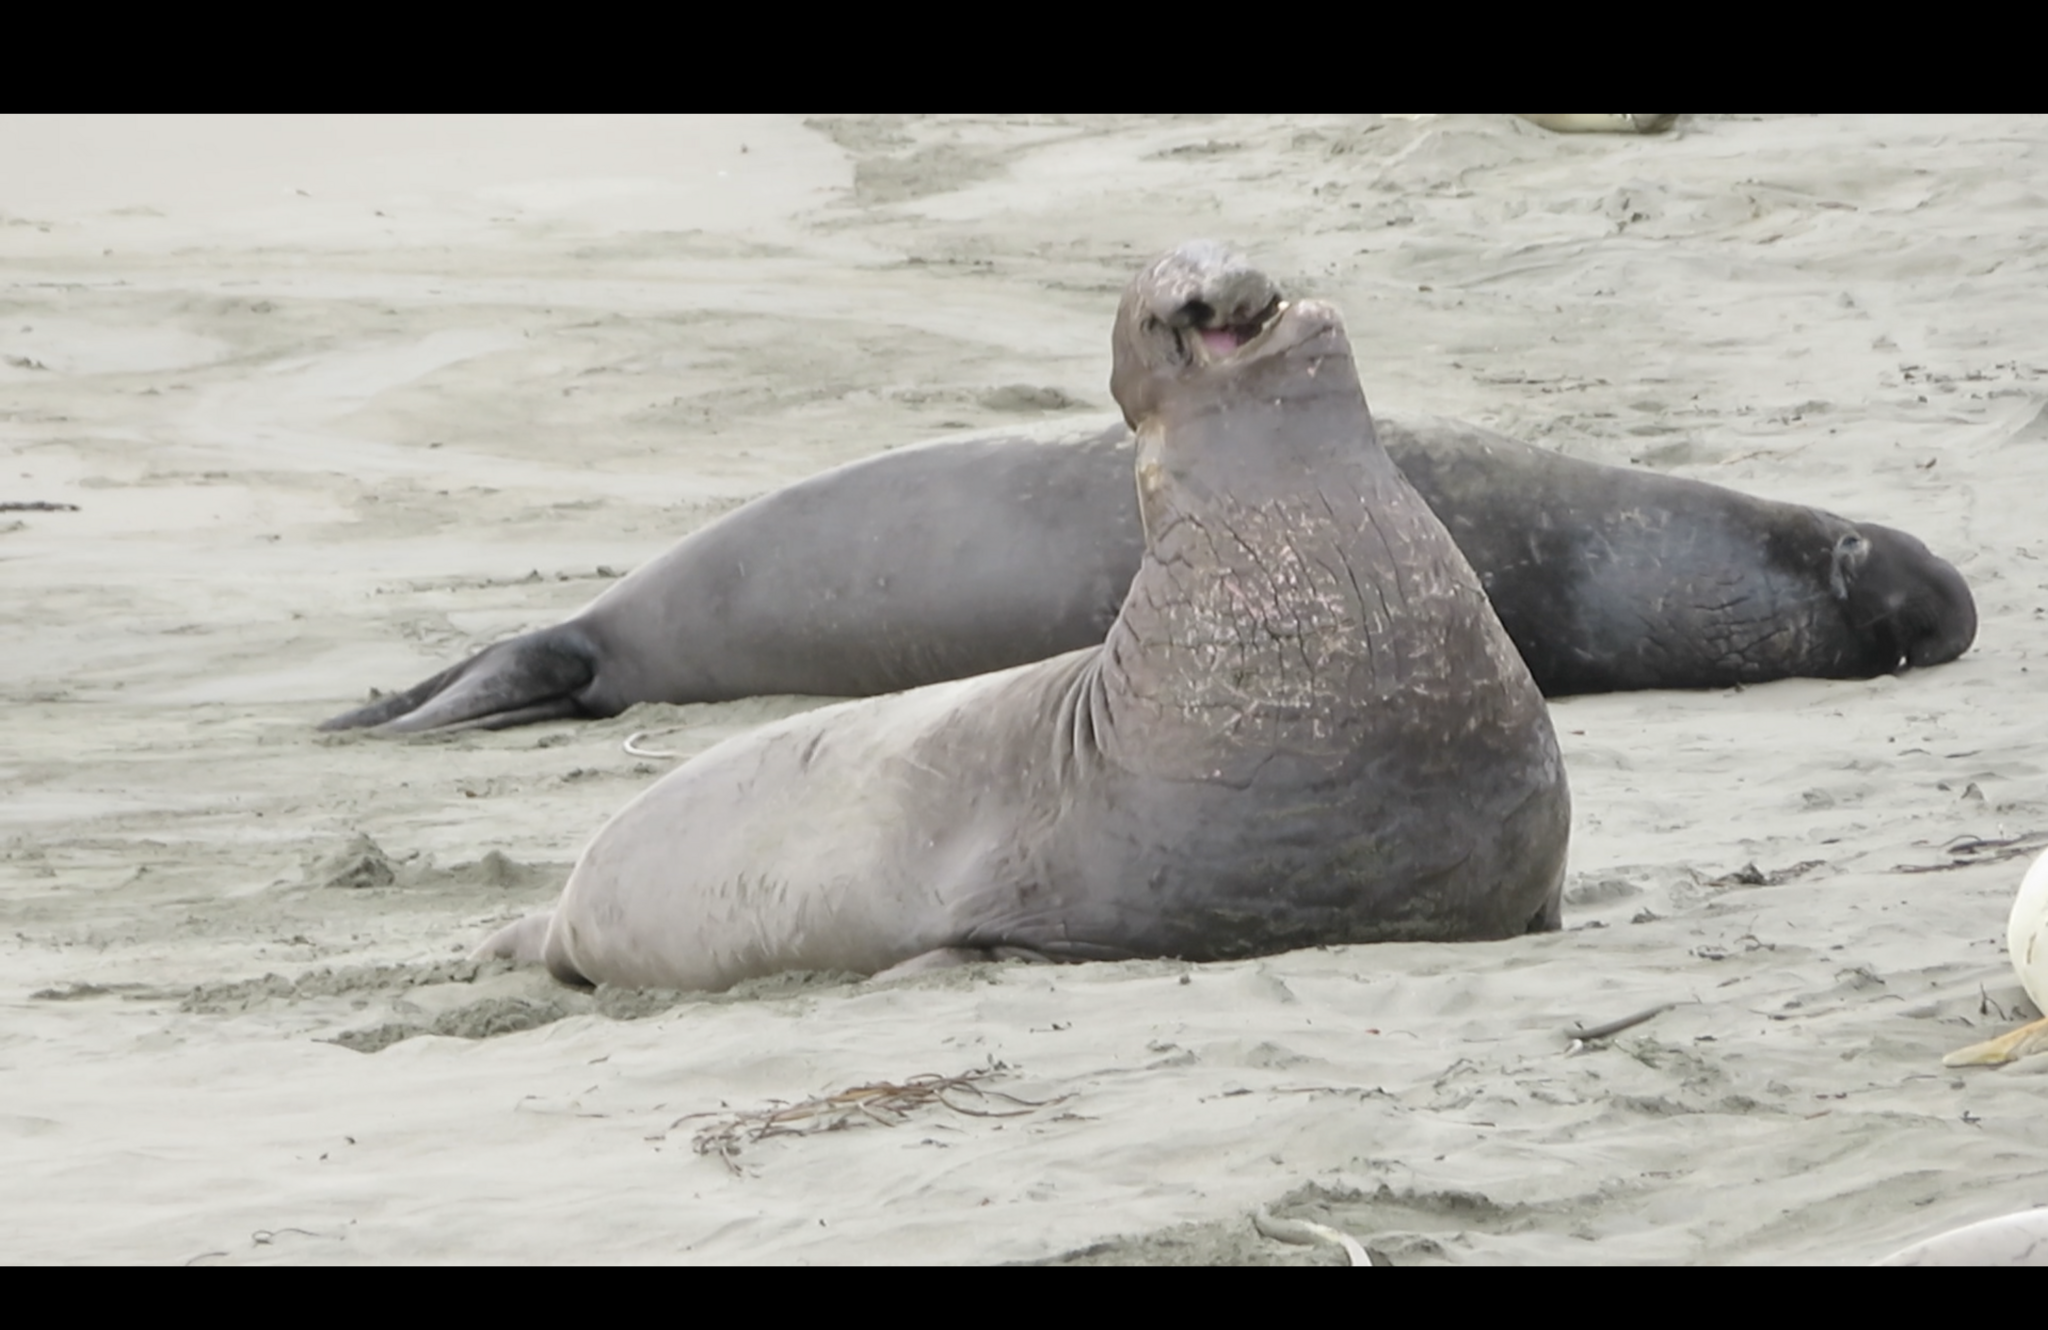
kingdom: Animalia
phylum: Chordata
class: Mammalia
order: Carnivora
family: Phocidae
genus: Mirounga
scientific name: Mirounga angustirostris
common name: Northern elephant seal
